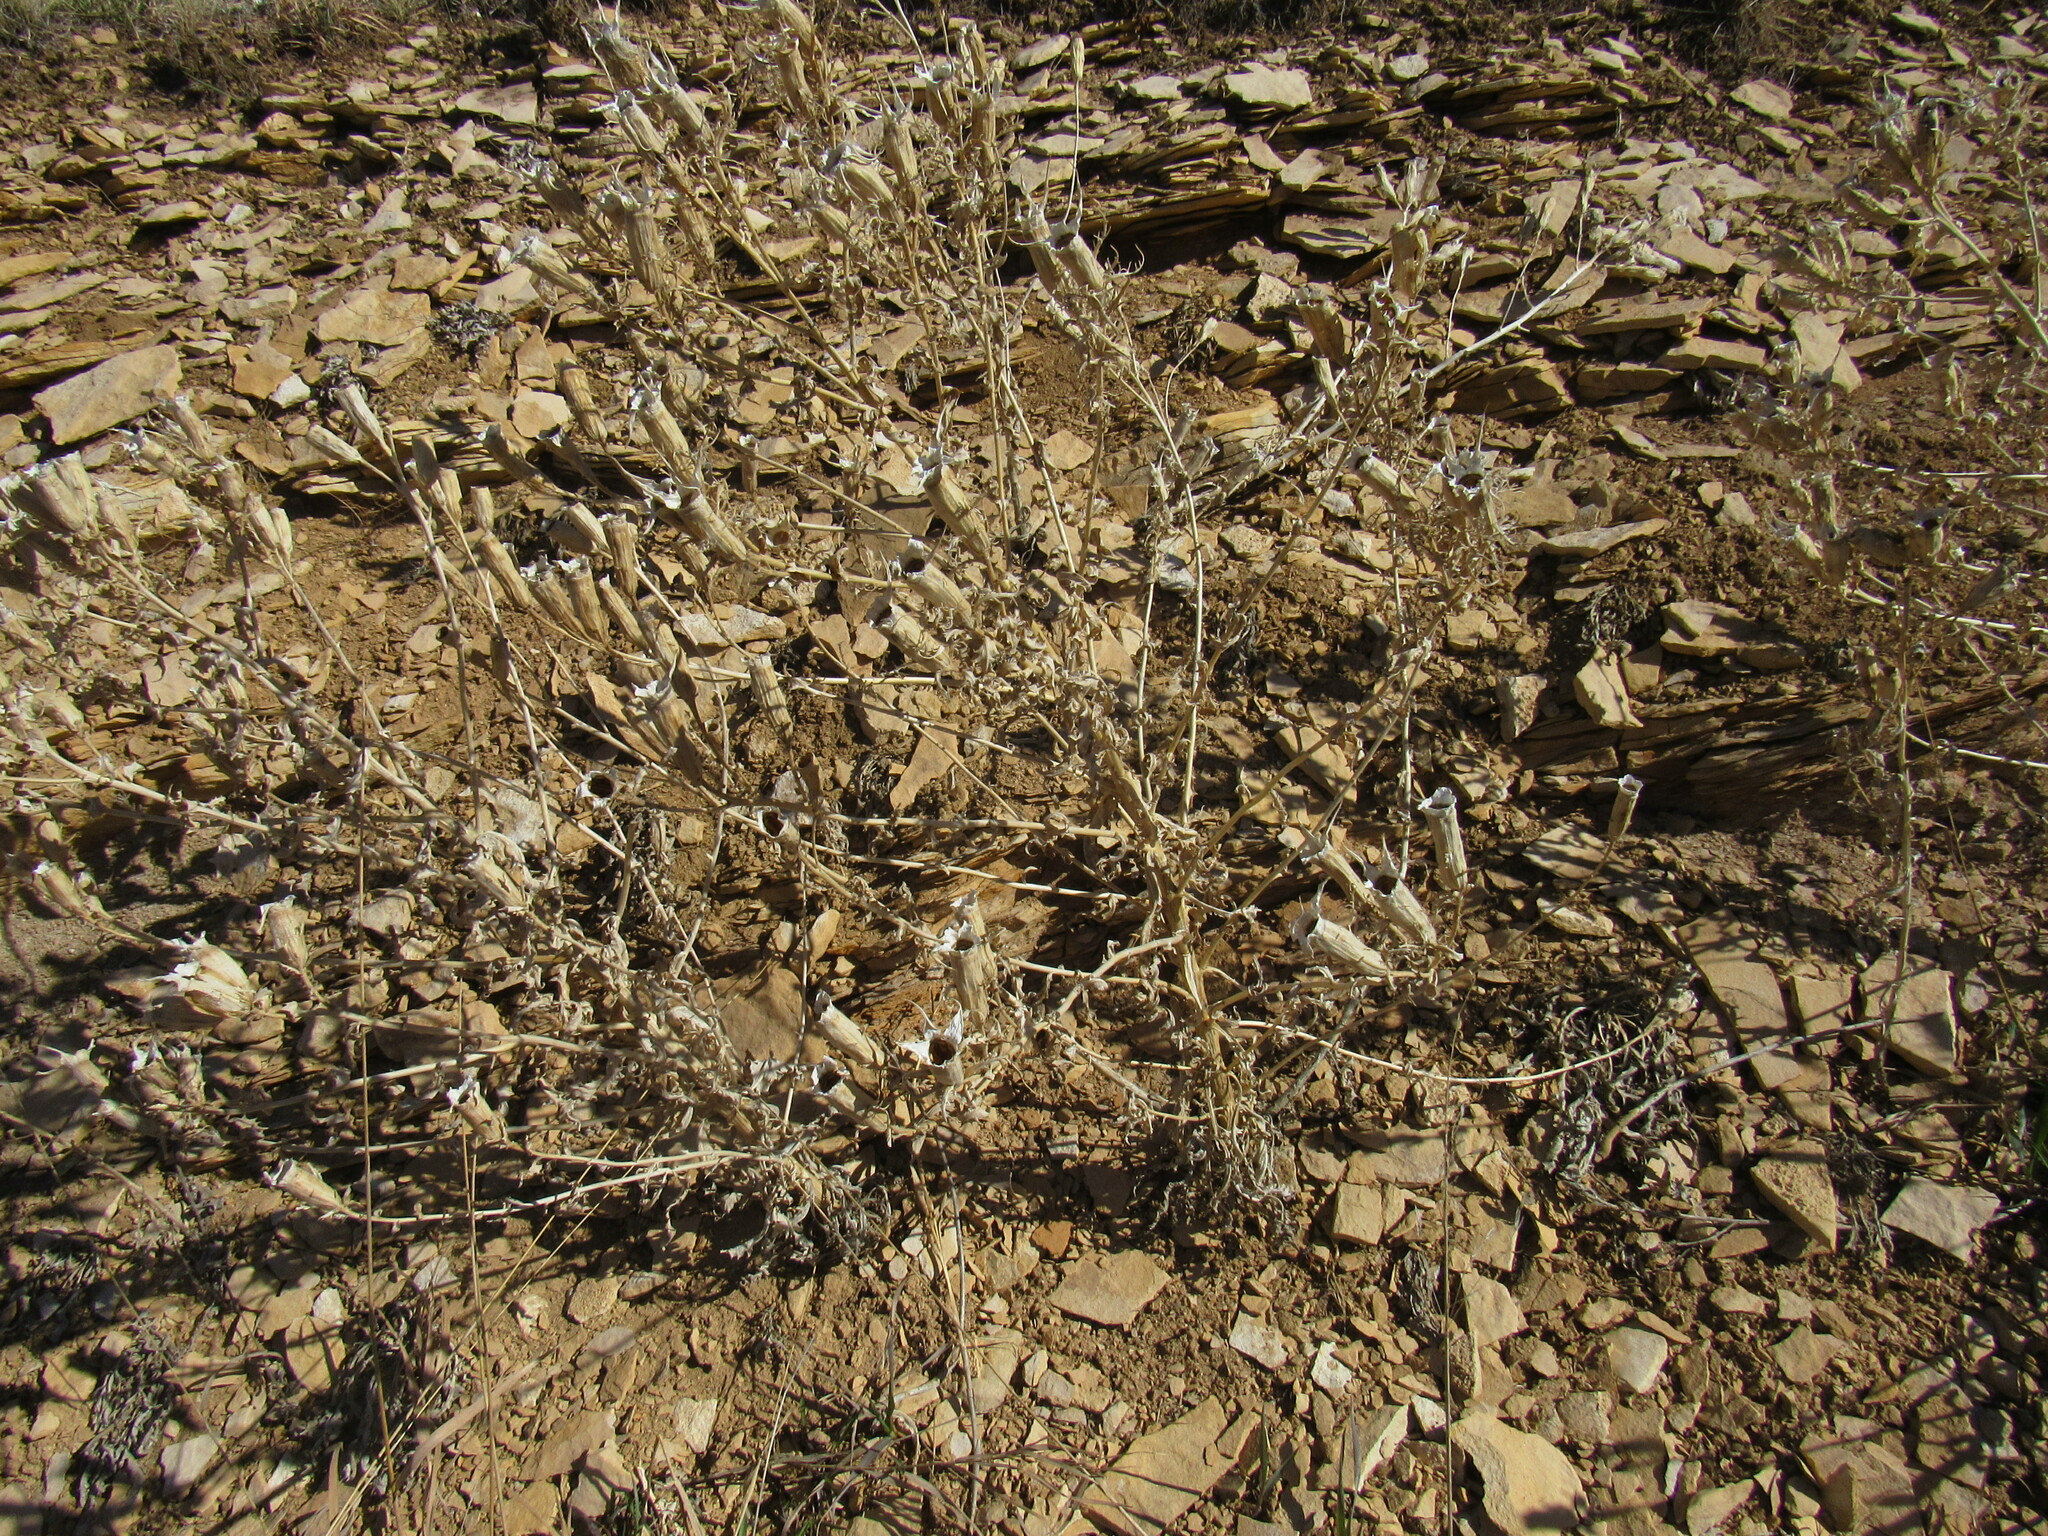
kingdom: Plantae
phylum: Tracheophyta
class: Magnoliopsida
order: Cornales
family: Loasaceae
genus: Mentzelia
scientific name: Mentzelia decapetala
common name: Gumbo-lily
